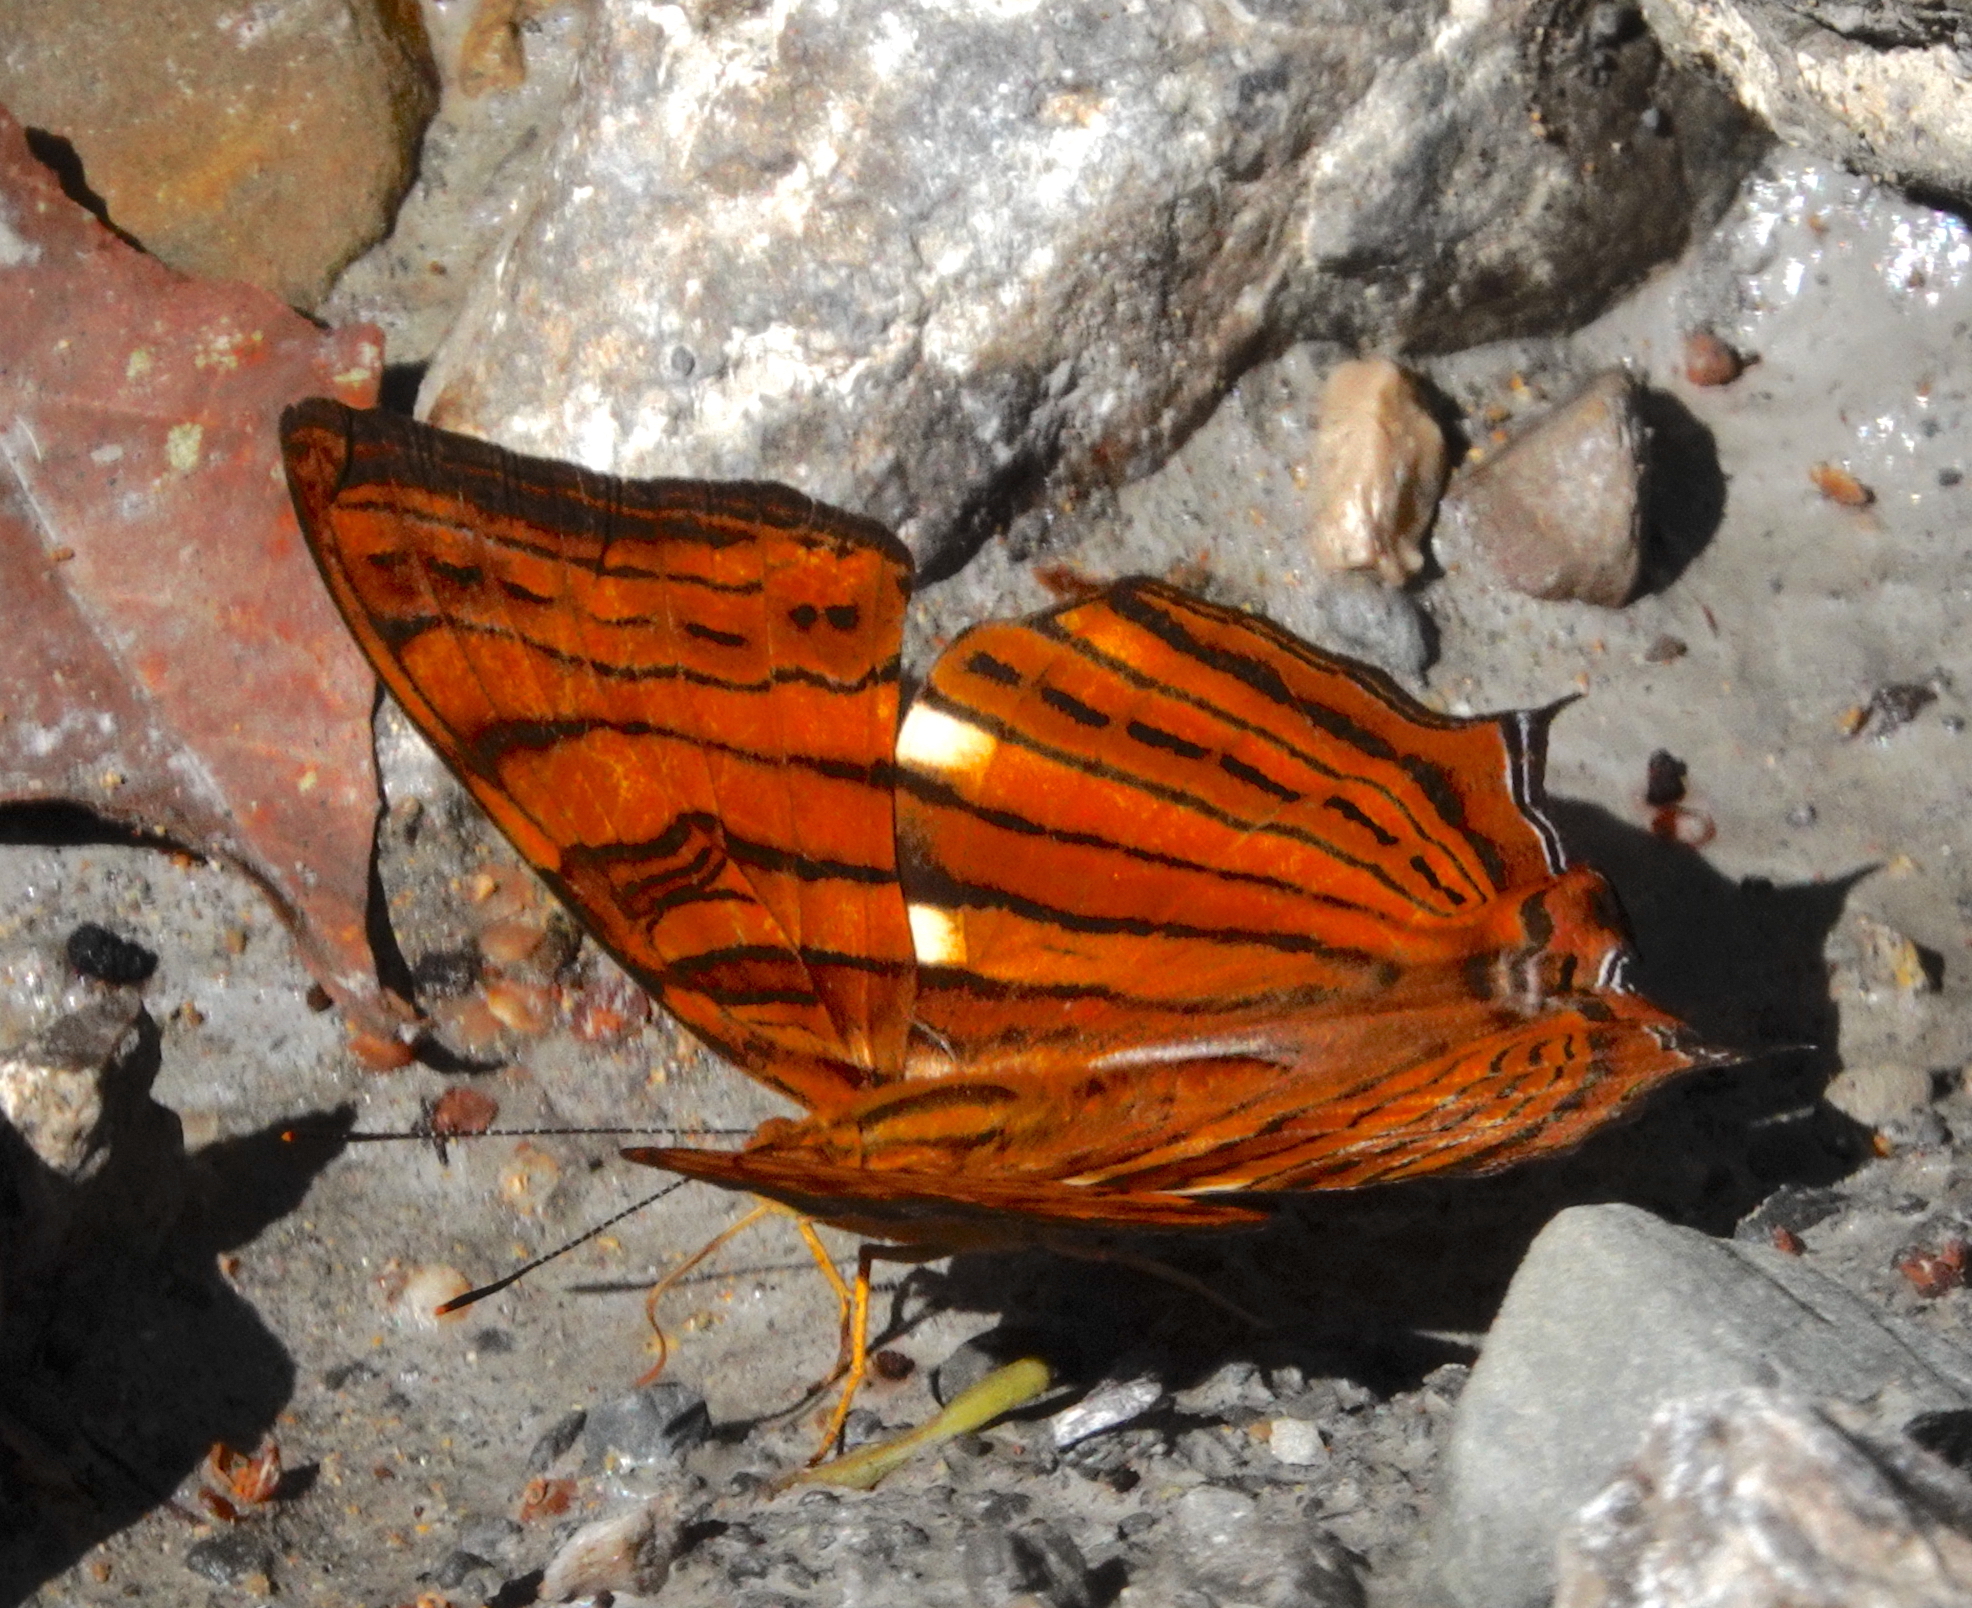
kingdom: Animalia
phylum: Arthropoda
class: Insecta
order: Lepidoptera
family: Nymphalidae
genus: Cyrestis
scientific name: Cyrestis thyonneus
